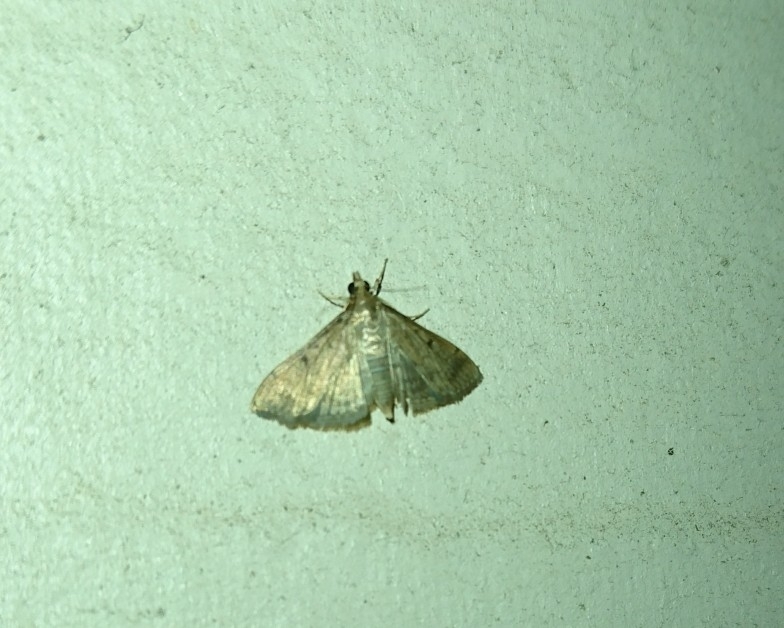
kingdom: Animalia
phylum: Arthropoda
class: Insecta
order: Lepidoptera
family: Crambidae
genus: Herpetogramma
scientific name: Herpetogramma phaeopteralis
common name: Dusky herpetogramma moth
